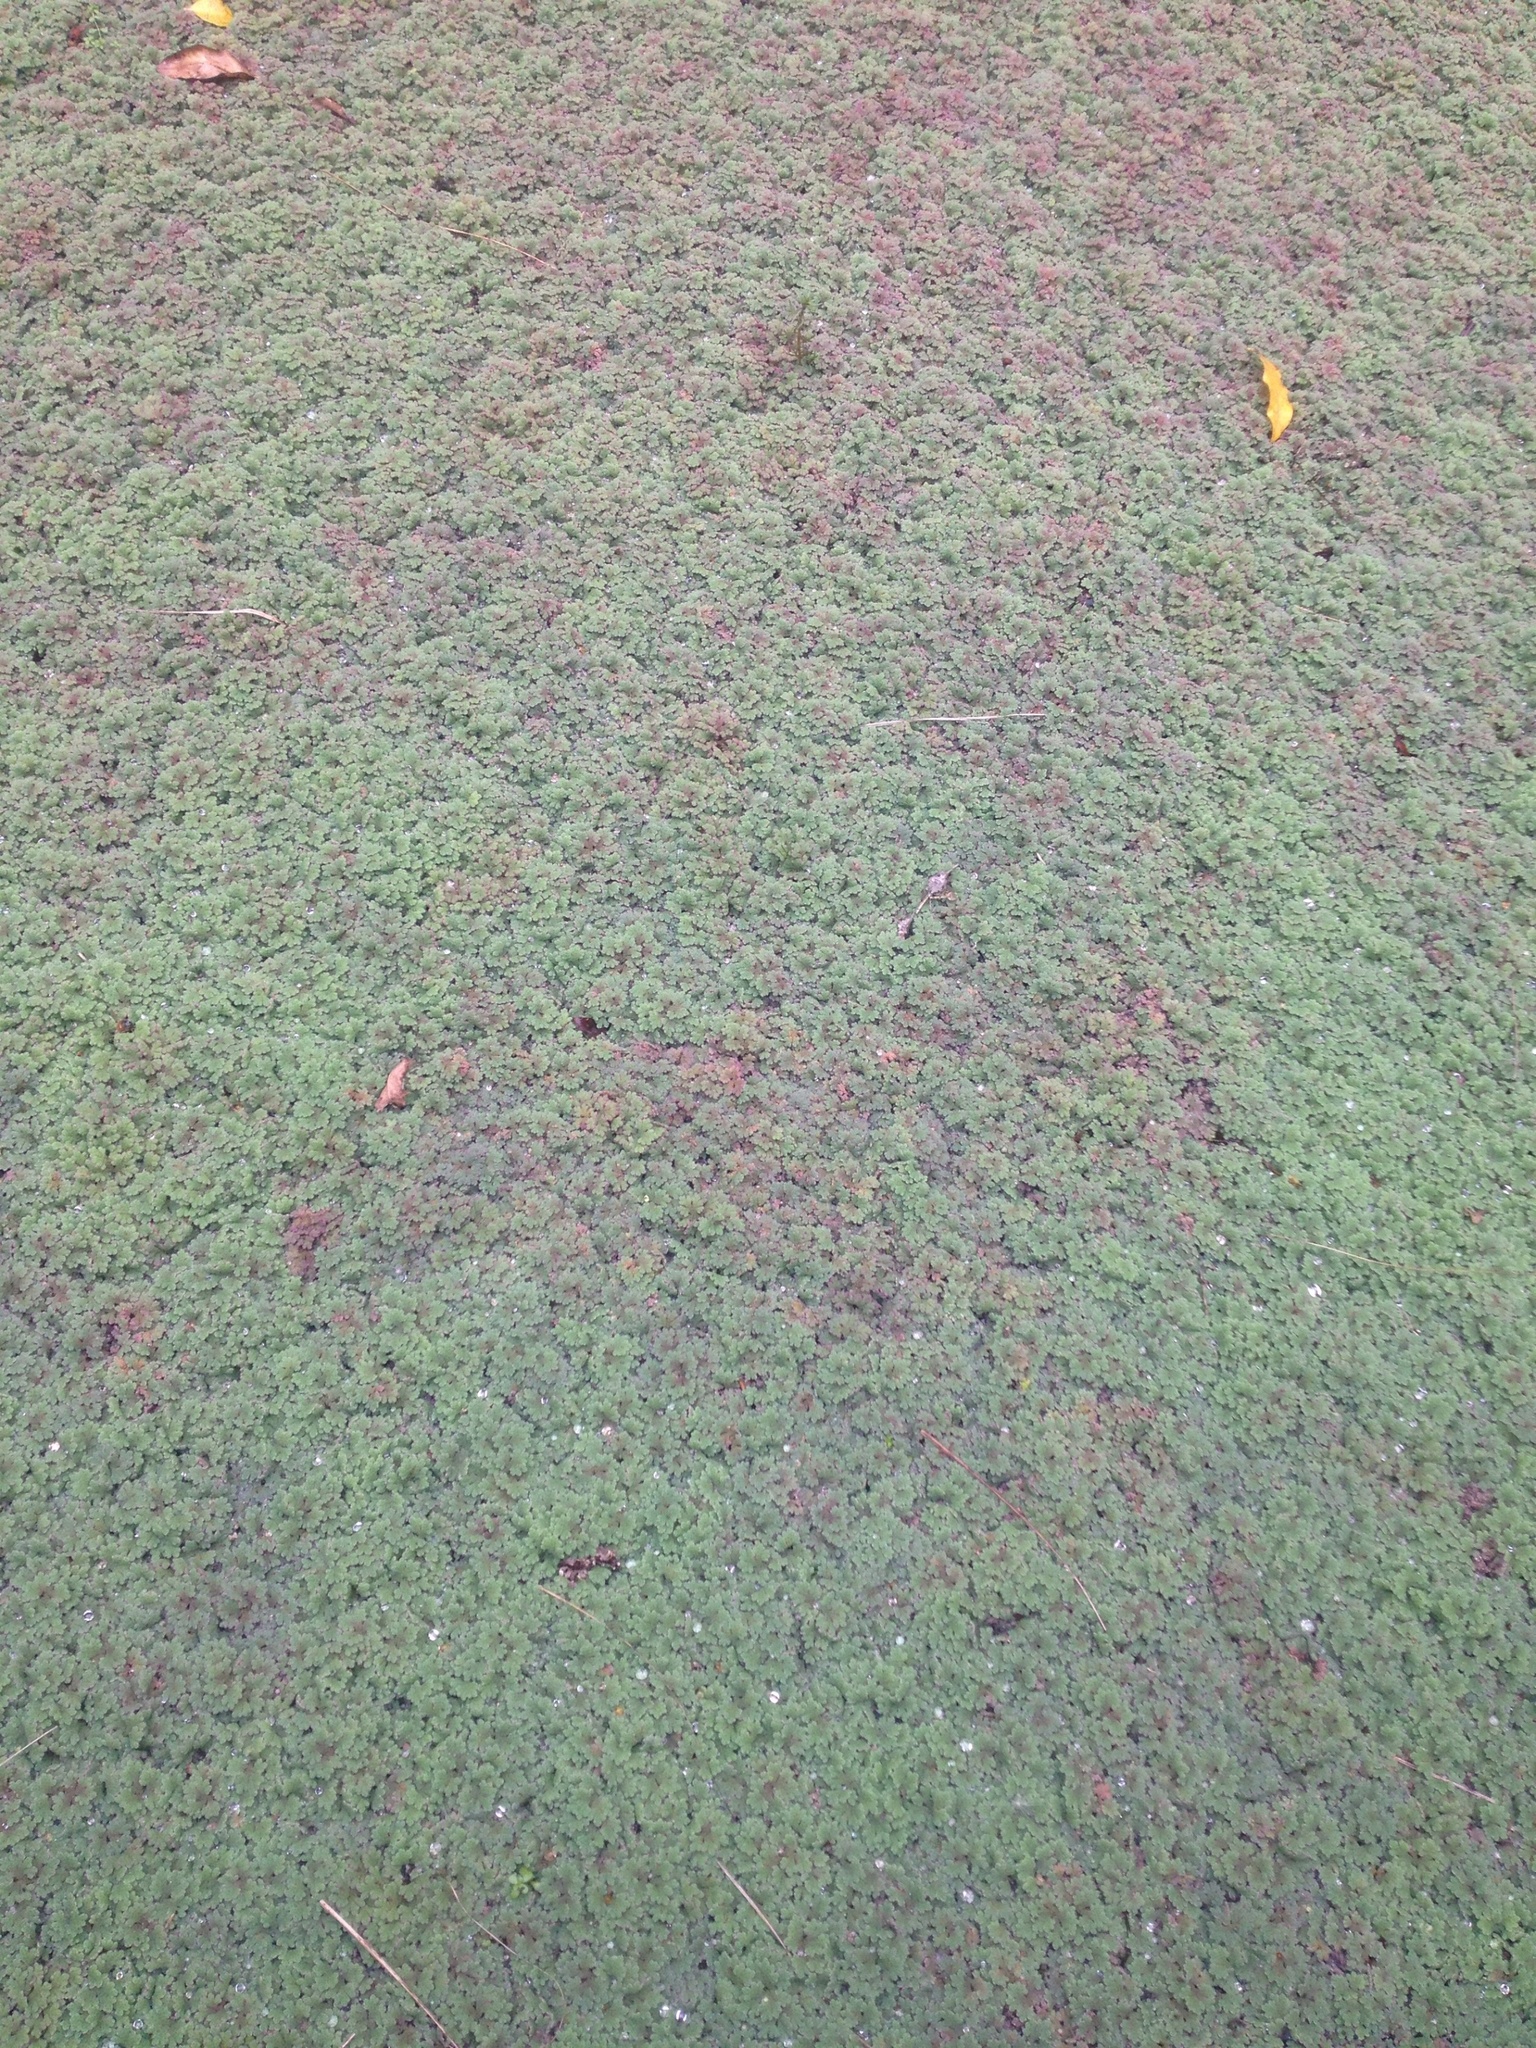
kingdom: Plantae
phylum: Tracheophyta
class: Polypodiopsida
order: Salviniales
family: Salviniaceae
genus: Azolla
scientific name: Azolla rubra
